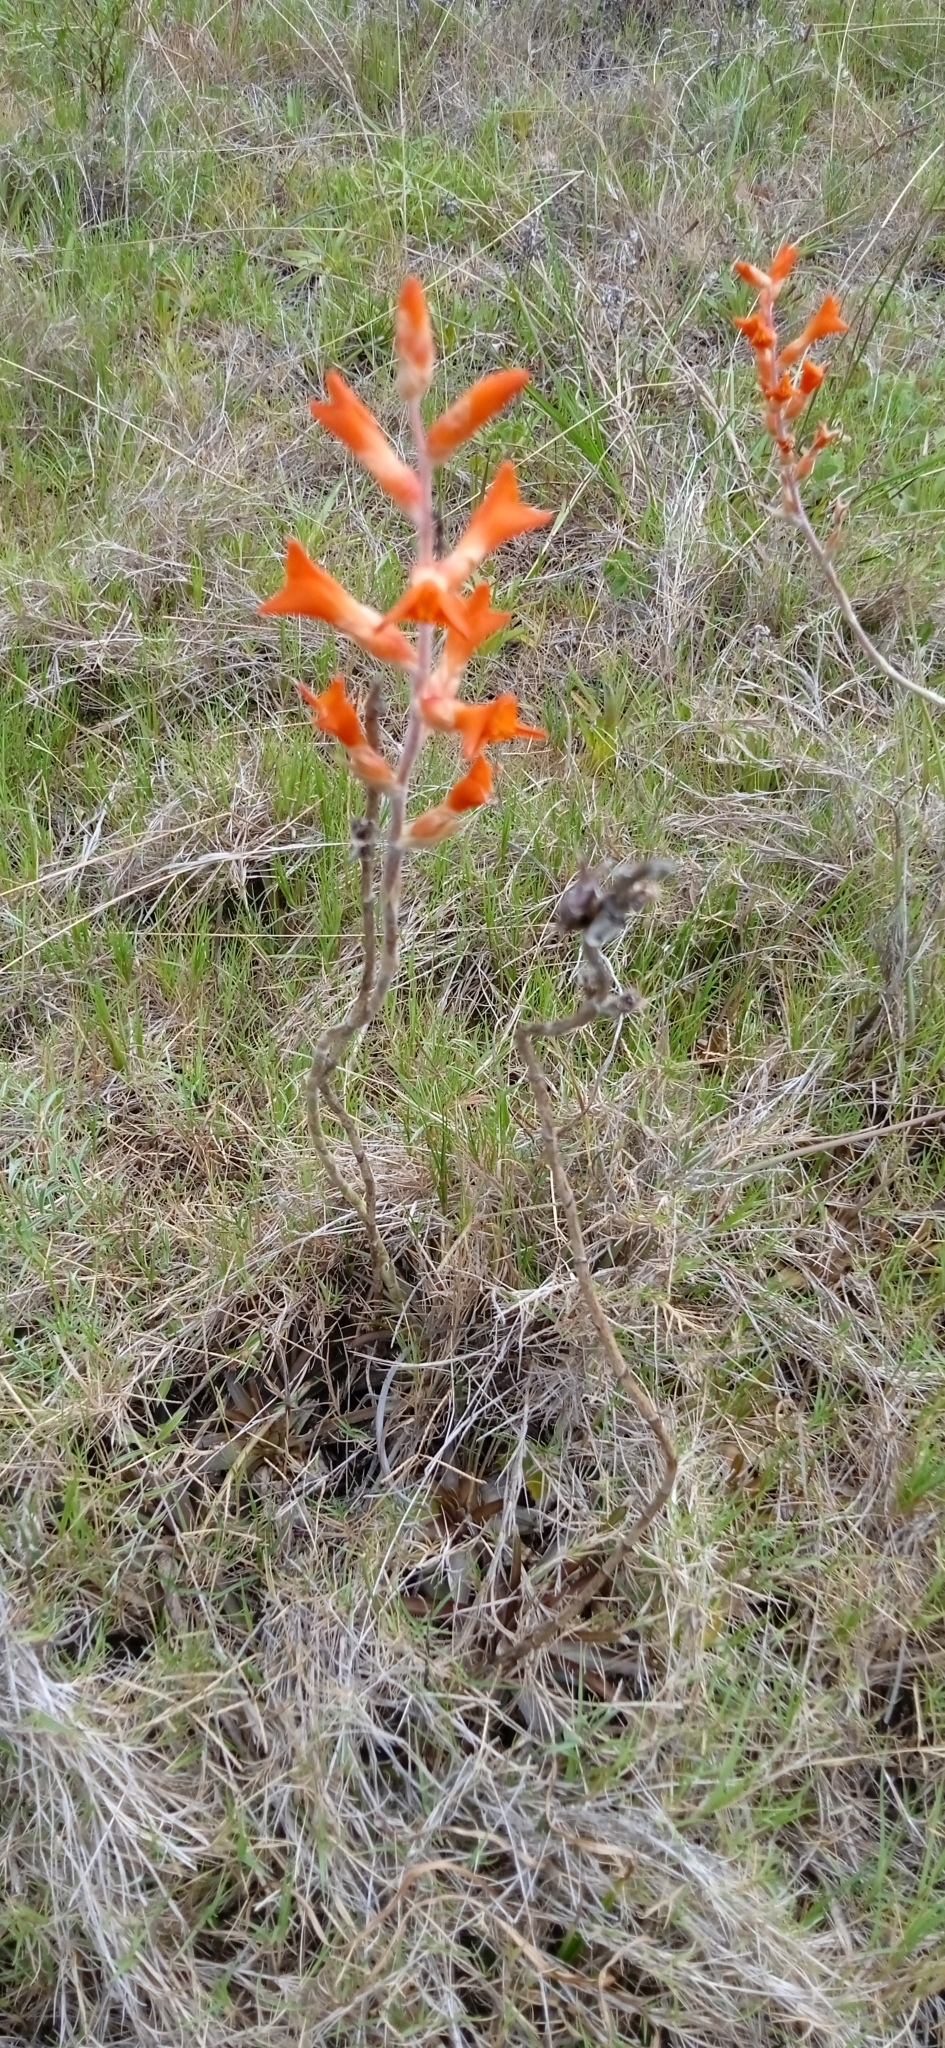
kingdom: Plantae
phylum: Tracheophyta
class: Liliopsida
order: Poales
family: Bromeliaceae
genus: Dyckia
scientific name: Dyckia remotiflora
